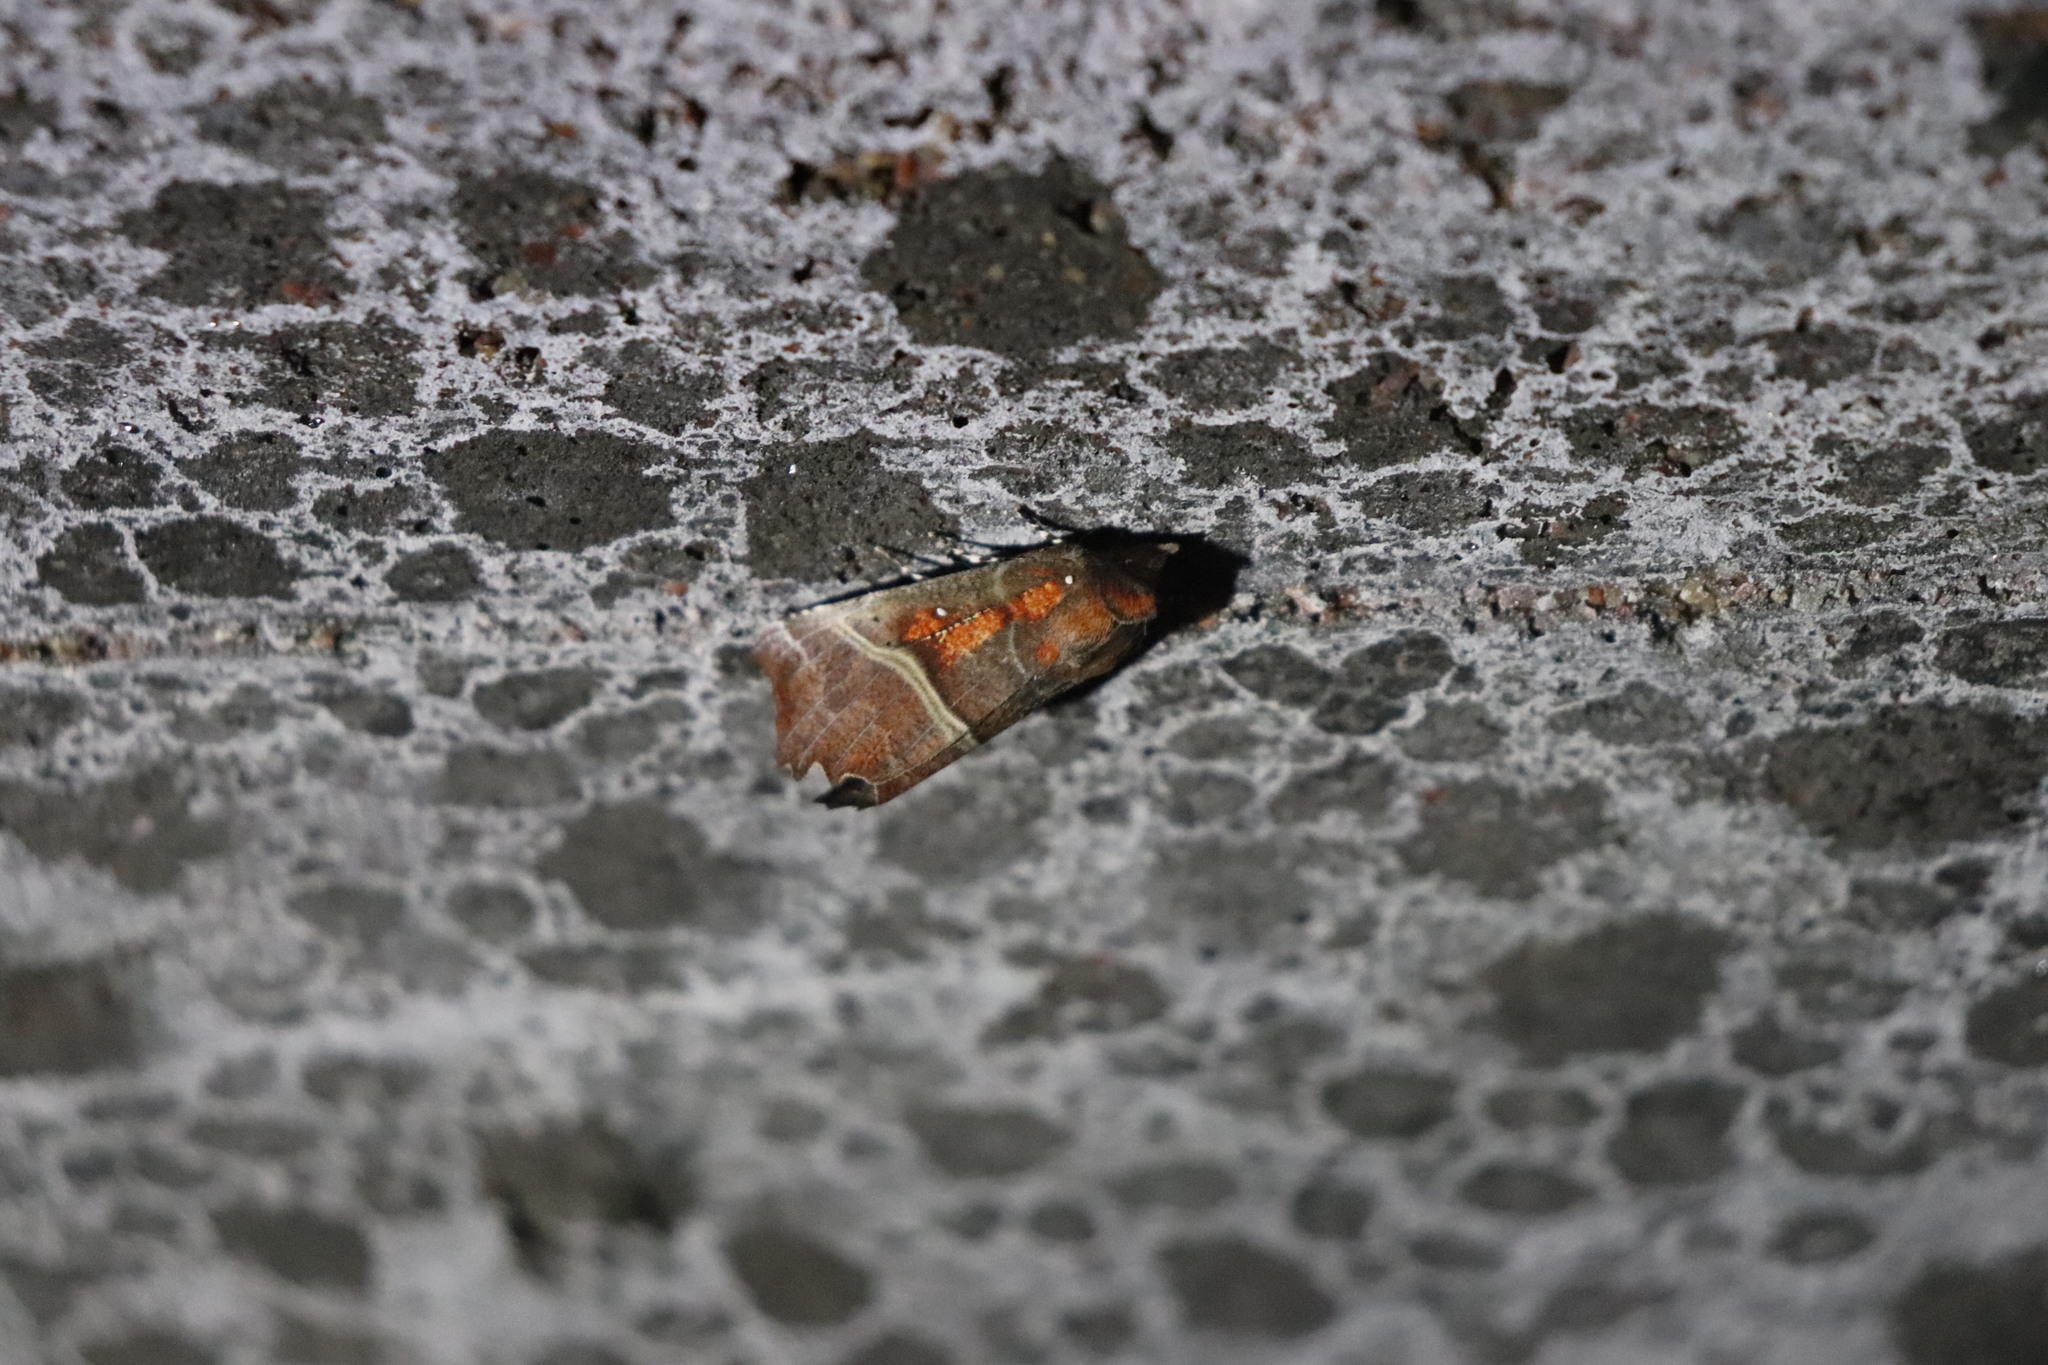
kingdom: Animalia
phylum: Arthropoda
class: Insecta
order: Lepidoptera
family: Erebidae
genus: Scoliopteryx
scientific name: Scoliopteryx libatrix
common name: Herald
